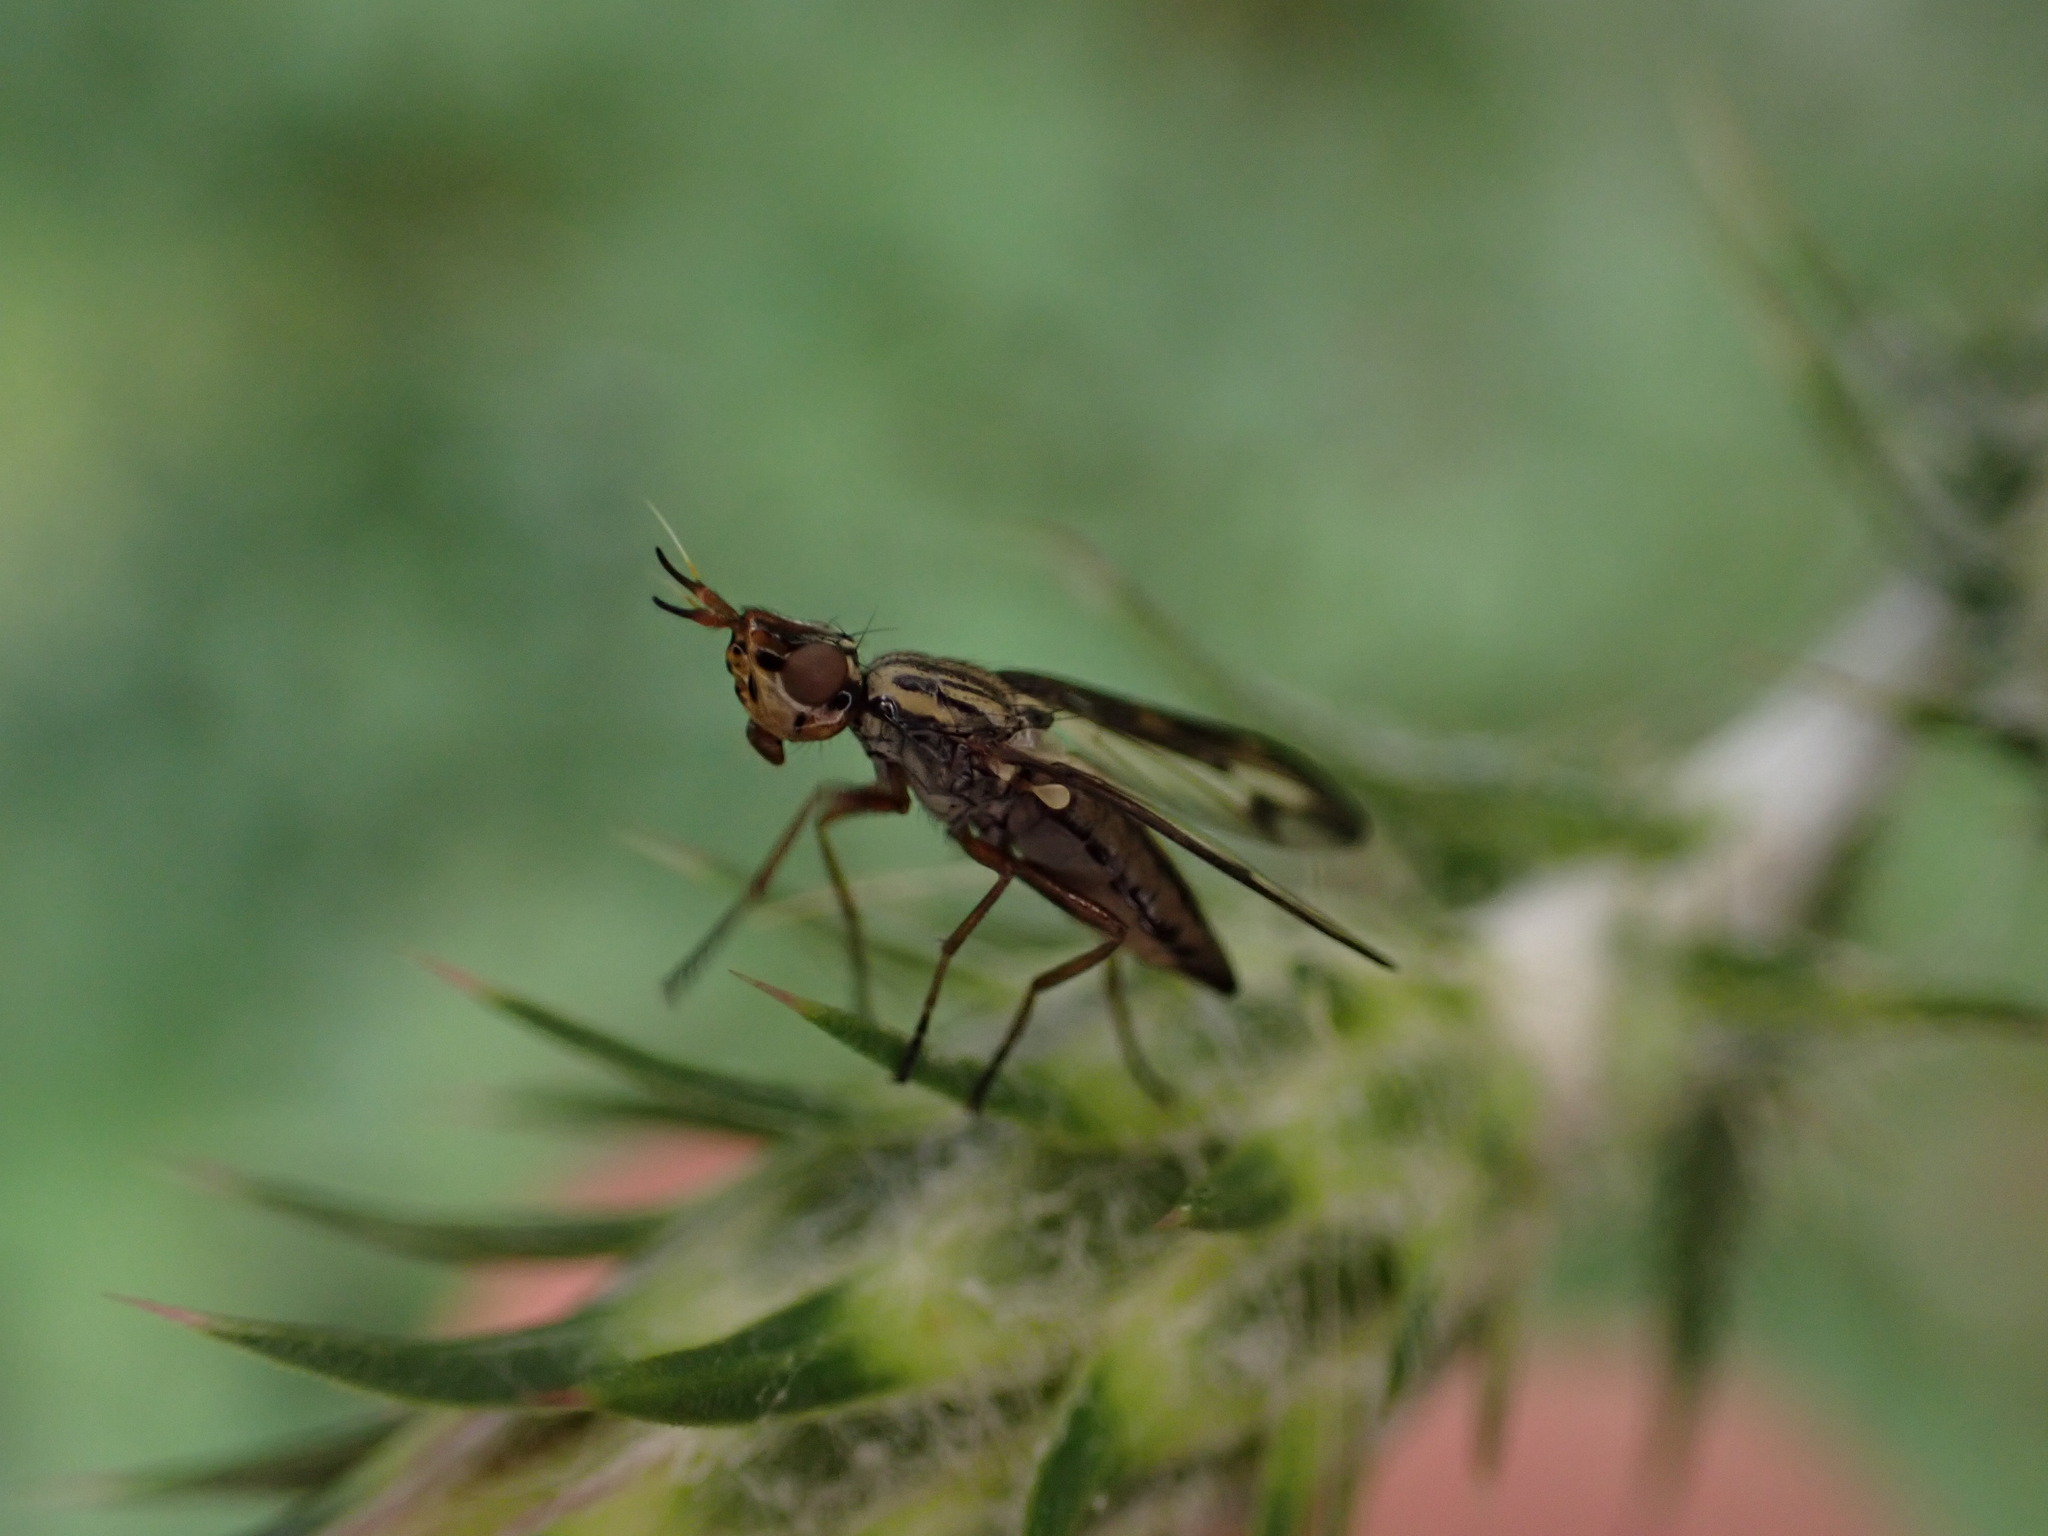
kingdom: Animalia
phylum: Arthropoda
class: Insecta
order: Diptera
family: Ulidiidae
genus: Dorycera
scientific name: Dorycera grandis
